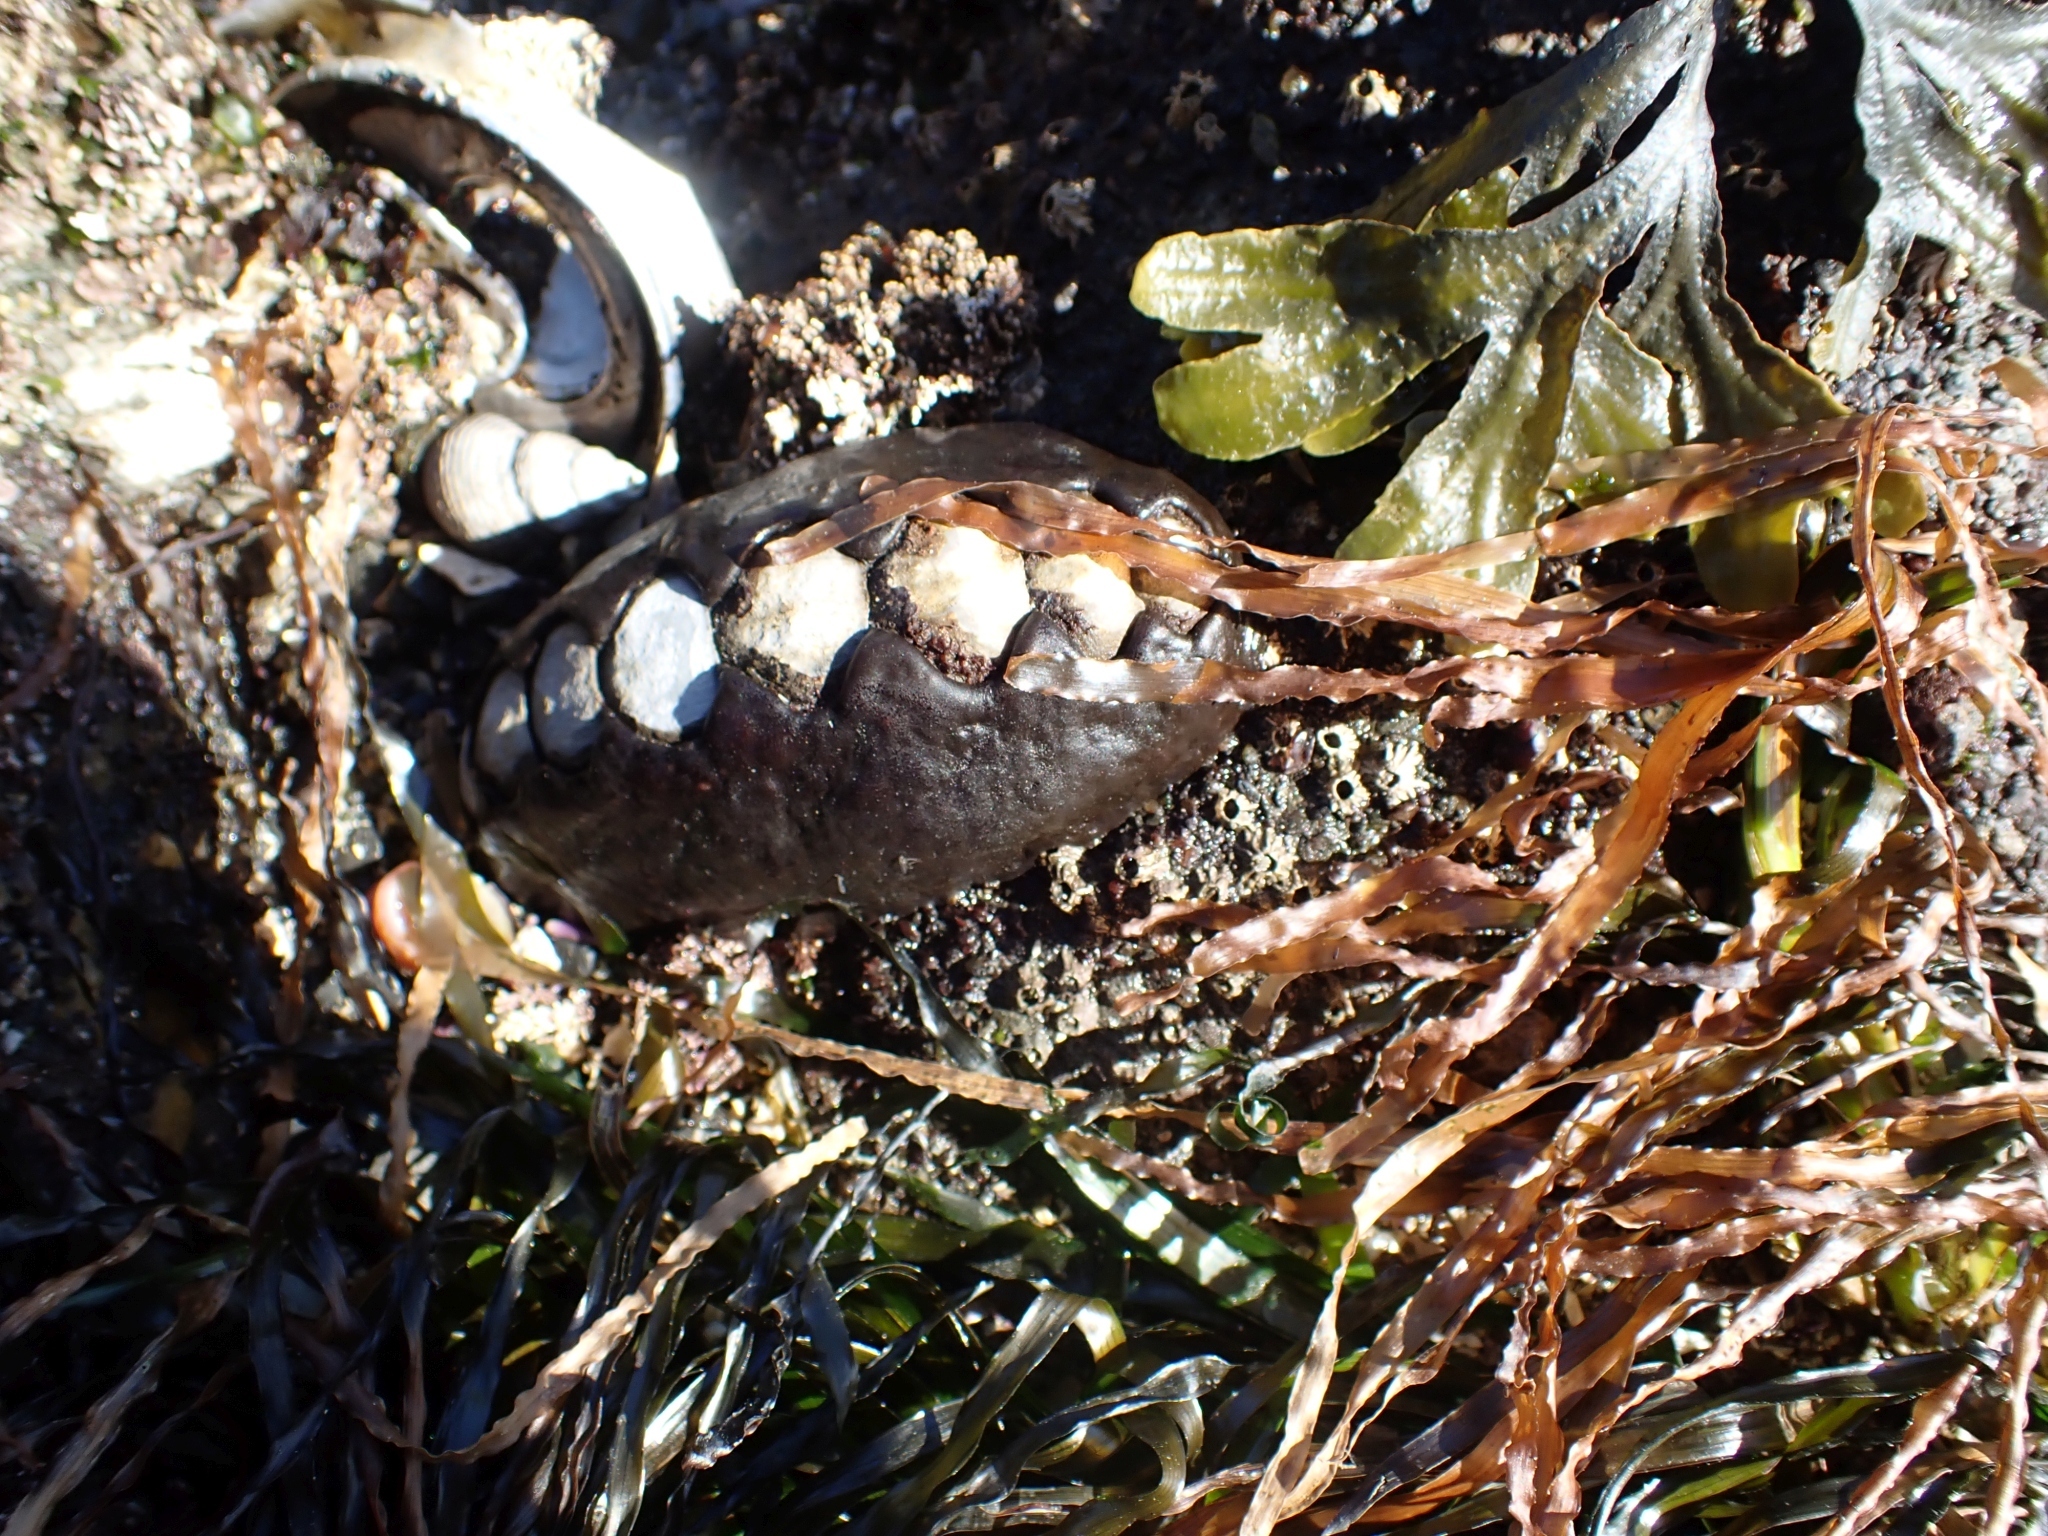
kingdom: Animalia
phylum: Mollusca
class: Polyplacophora
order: Chitonida
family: Mopaliidae
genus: Katharina
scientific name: Katharina tunicata
